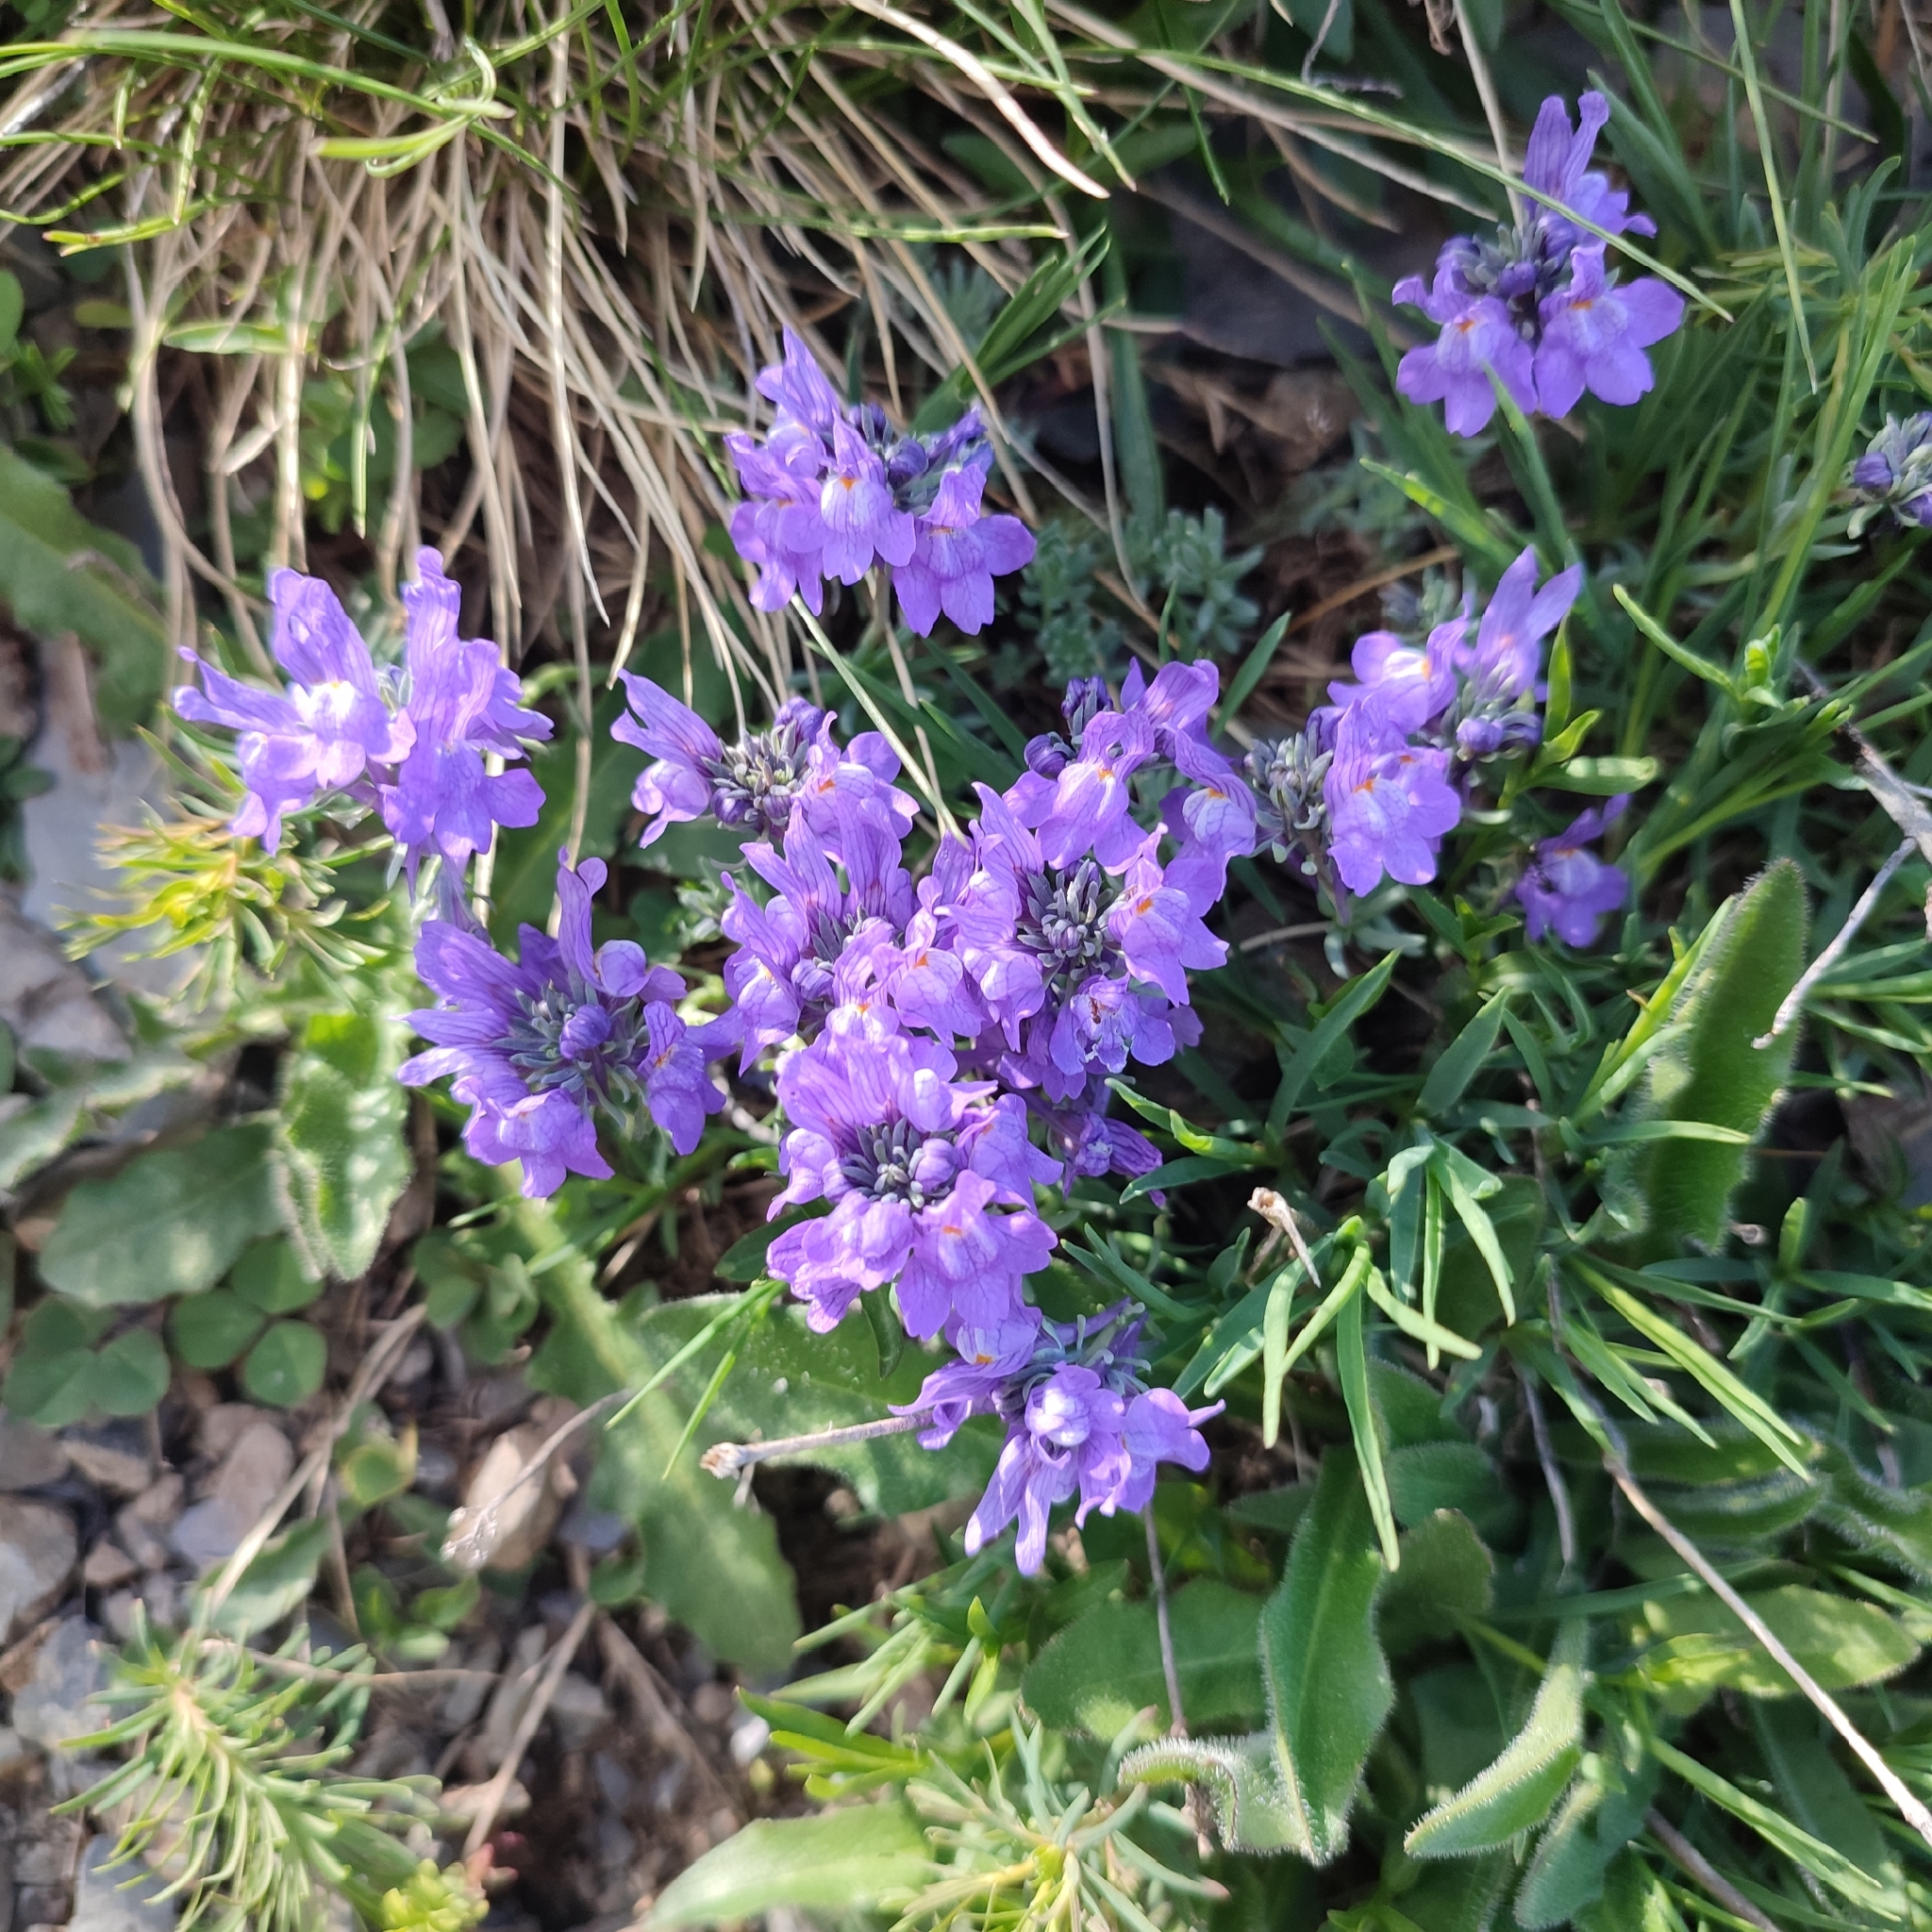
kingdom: Plantae
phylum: Tracheophyta
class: Magnoliopsida
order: Lamiales
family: Plantaginaceae
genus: Linaria
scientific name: Linaria alpina
